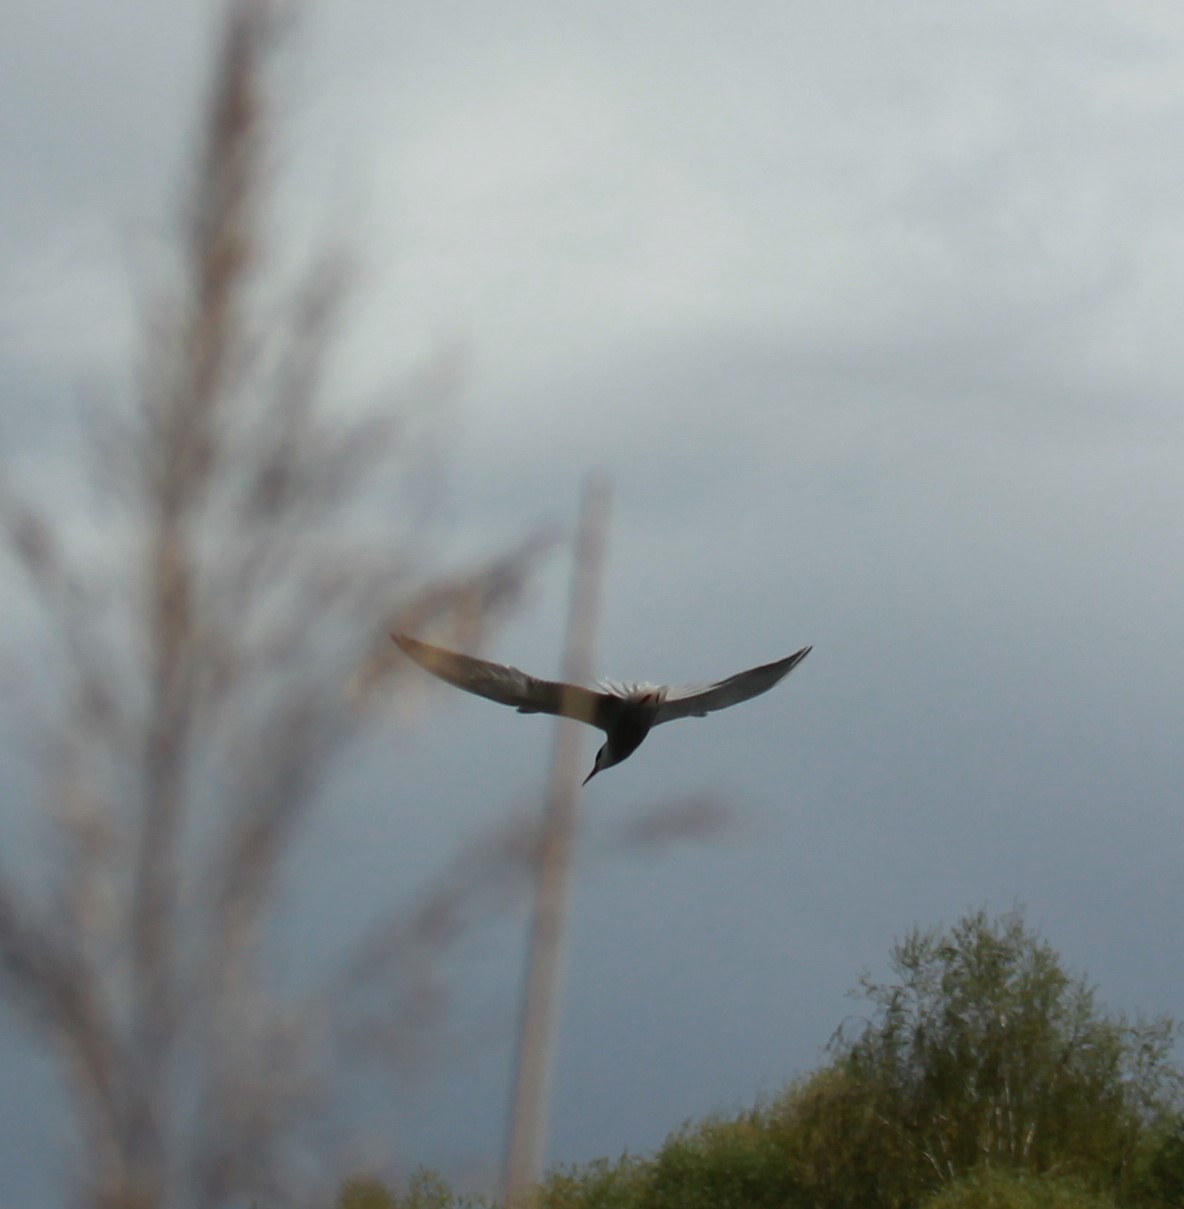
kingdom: Animalia
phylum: Chordata
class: Aves
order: Charadriiformes
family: Laridae
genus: Sterna
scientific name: Sterna hirundo
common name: Common tern
